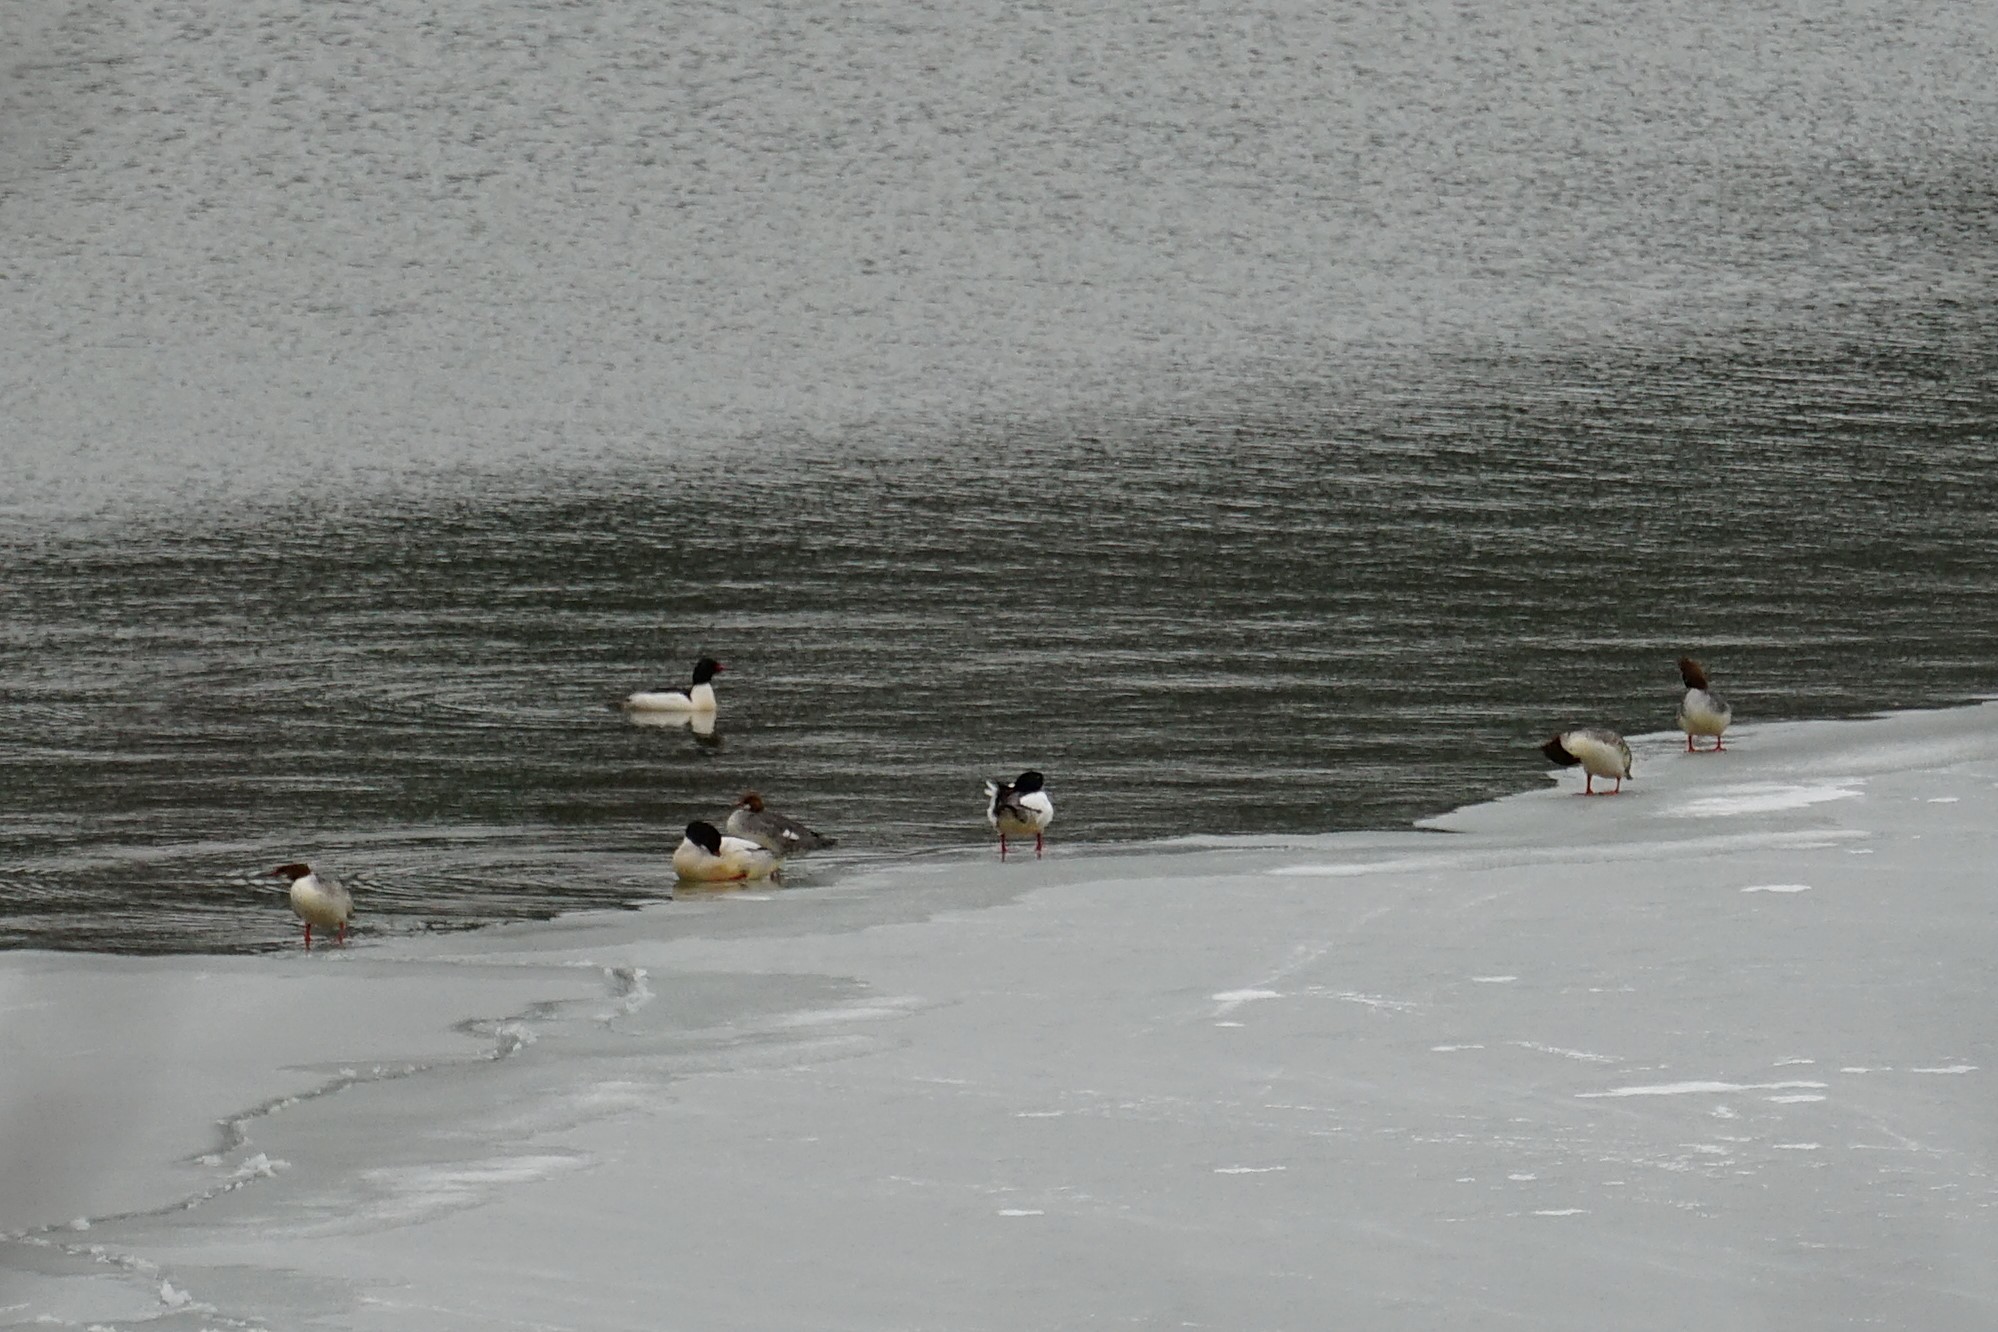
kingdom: Animalia
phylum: Chordata
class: Aves
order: Anseriformes
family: Anatidae
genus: Mergus
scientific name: Mergus merganser
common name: Common merganser
